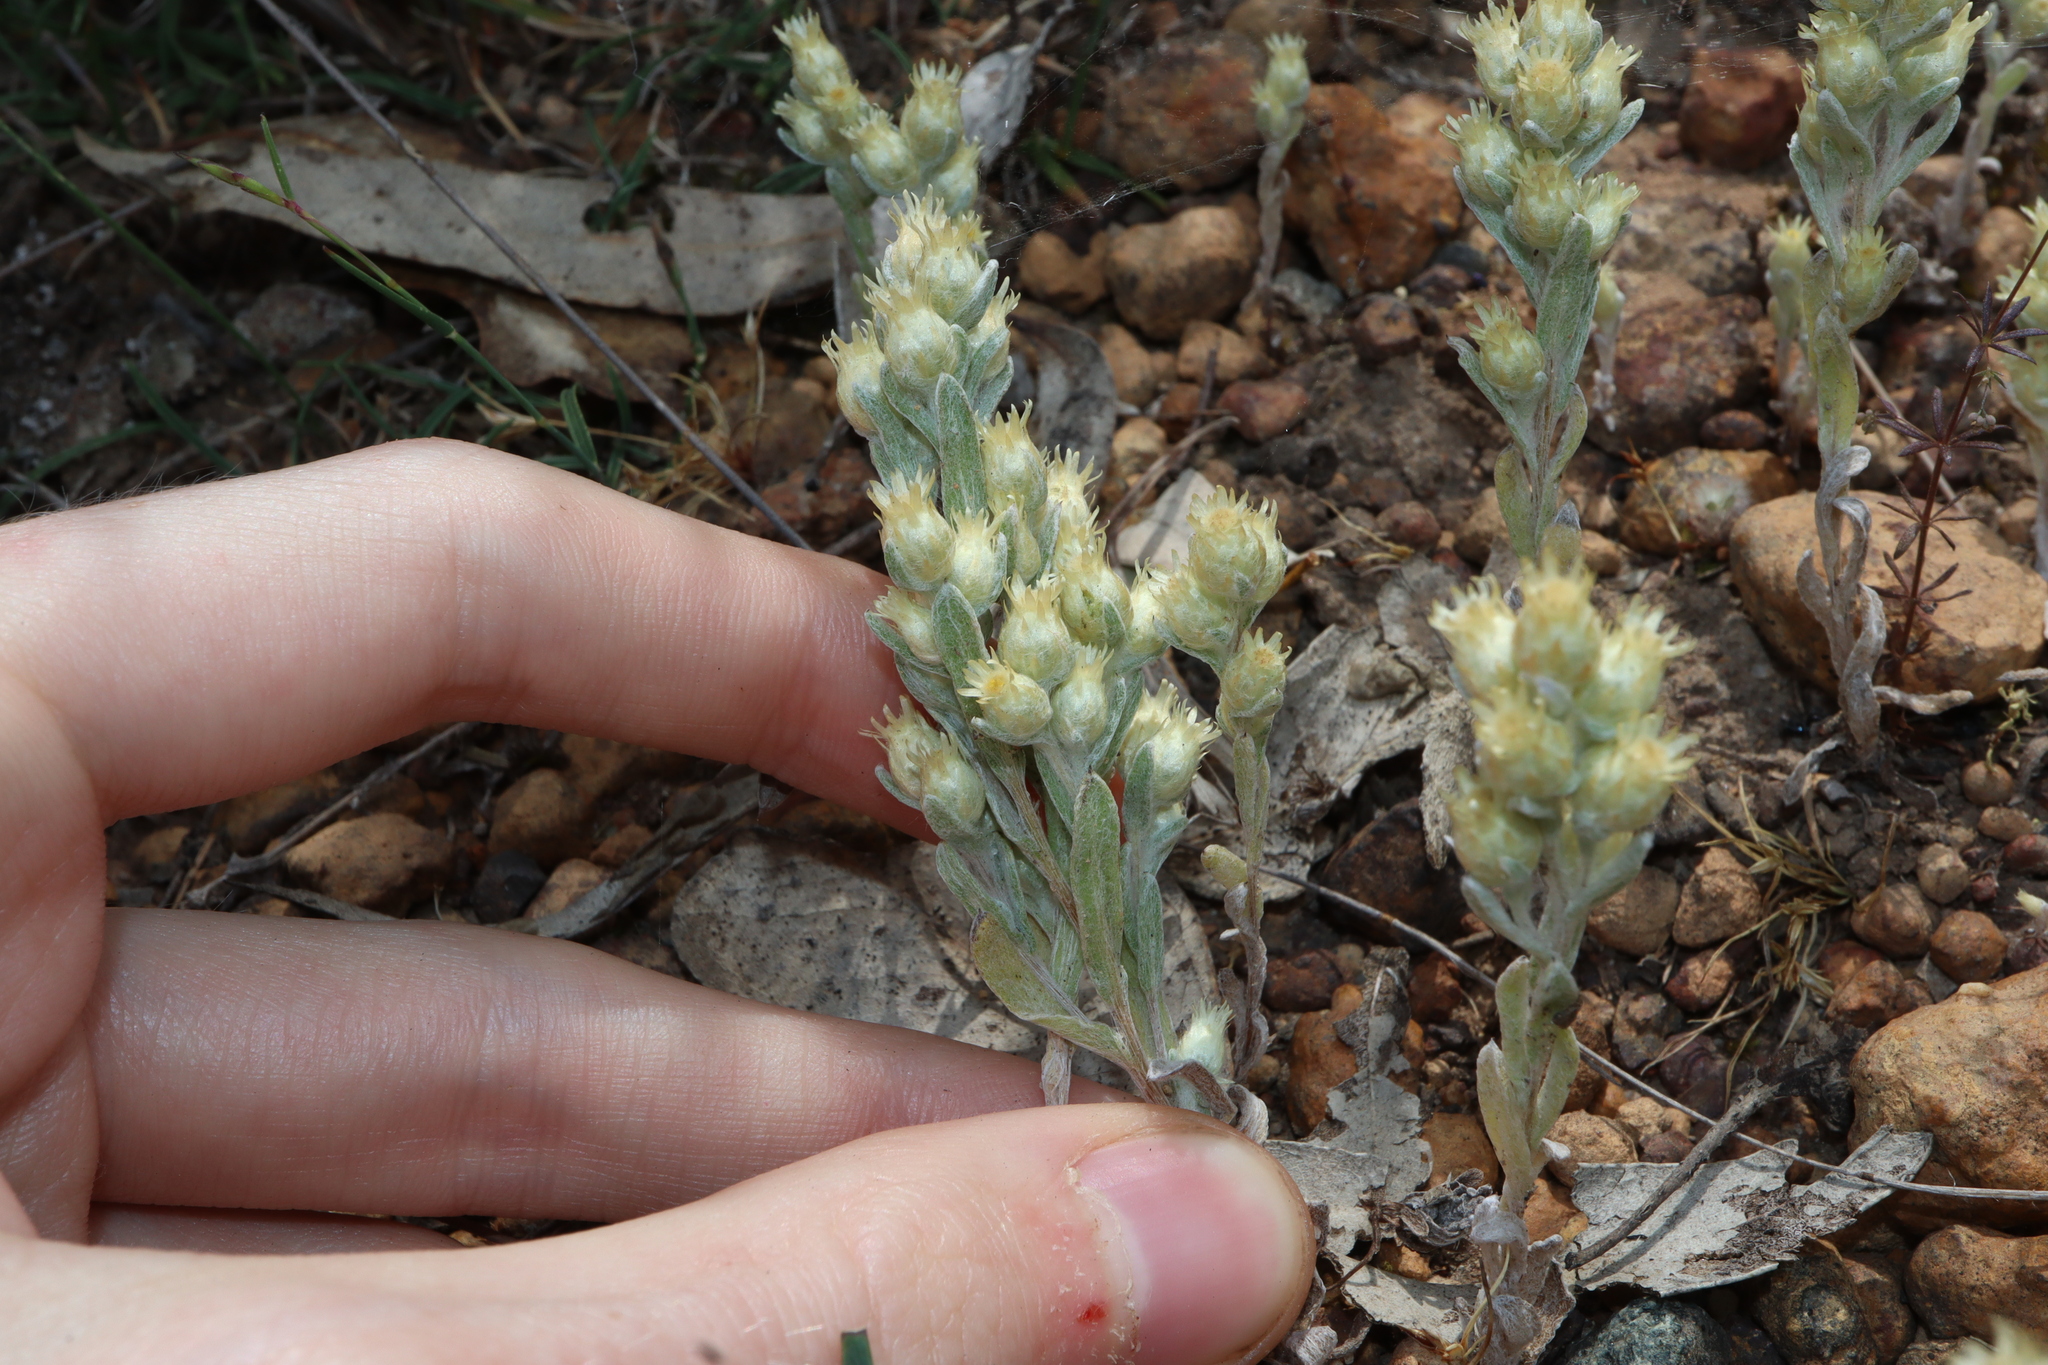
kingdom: Plantae
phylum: Tracheophyta
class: Magnoliopsida
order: Asterales
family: Asteraceae
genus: Pterochaeta
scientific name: Pterochaeta paniculata
